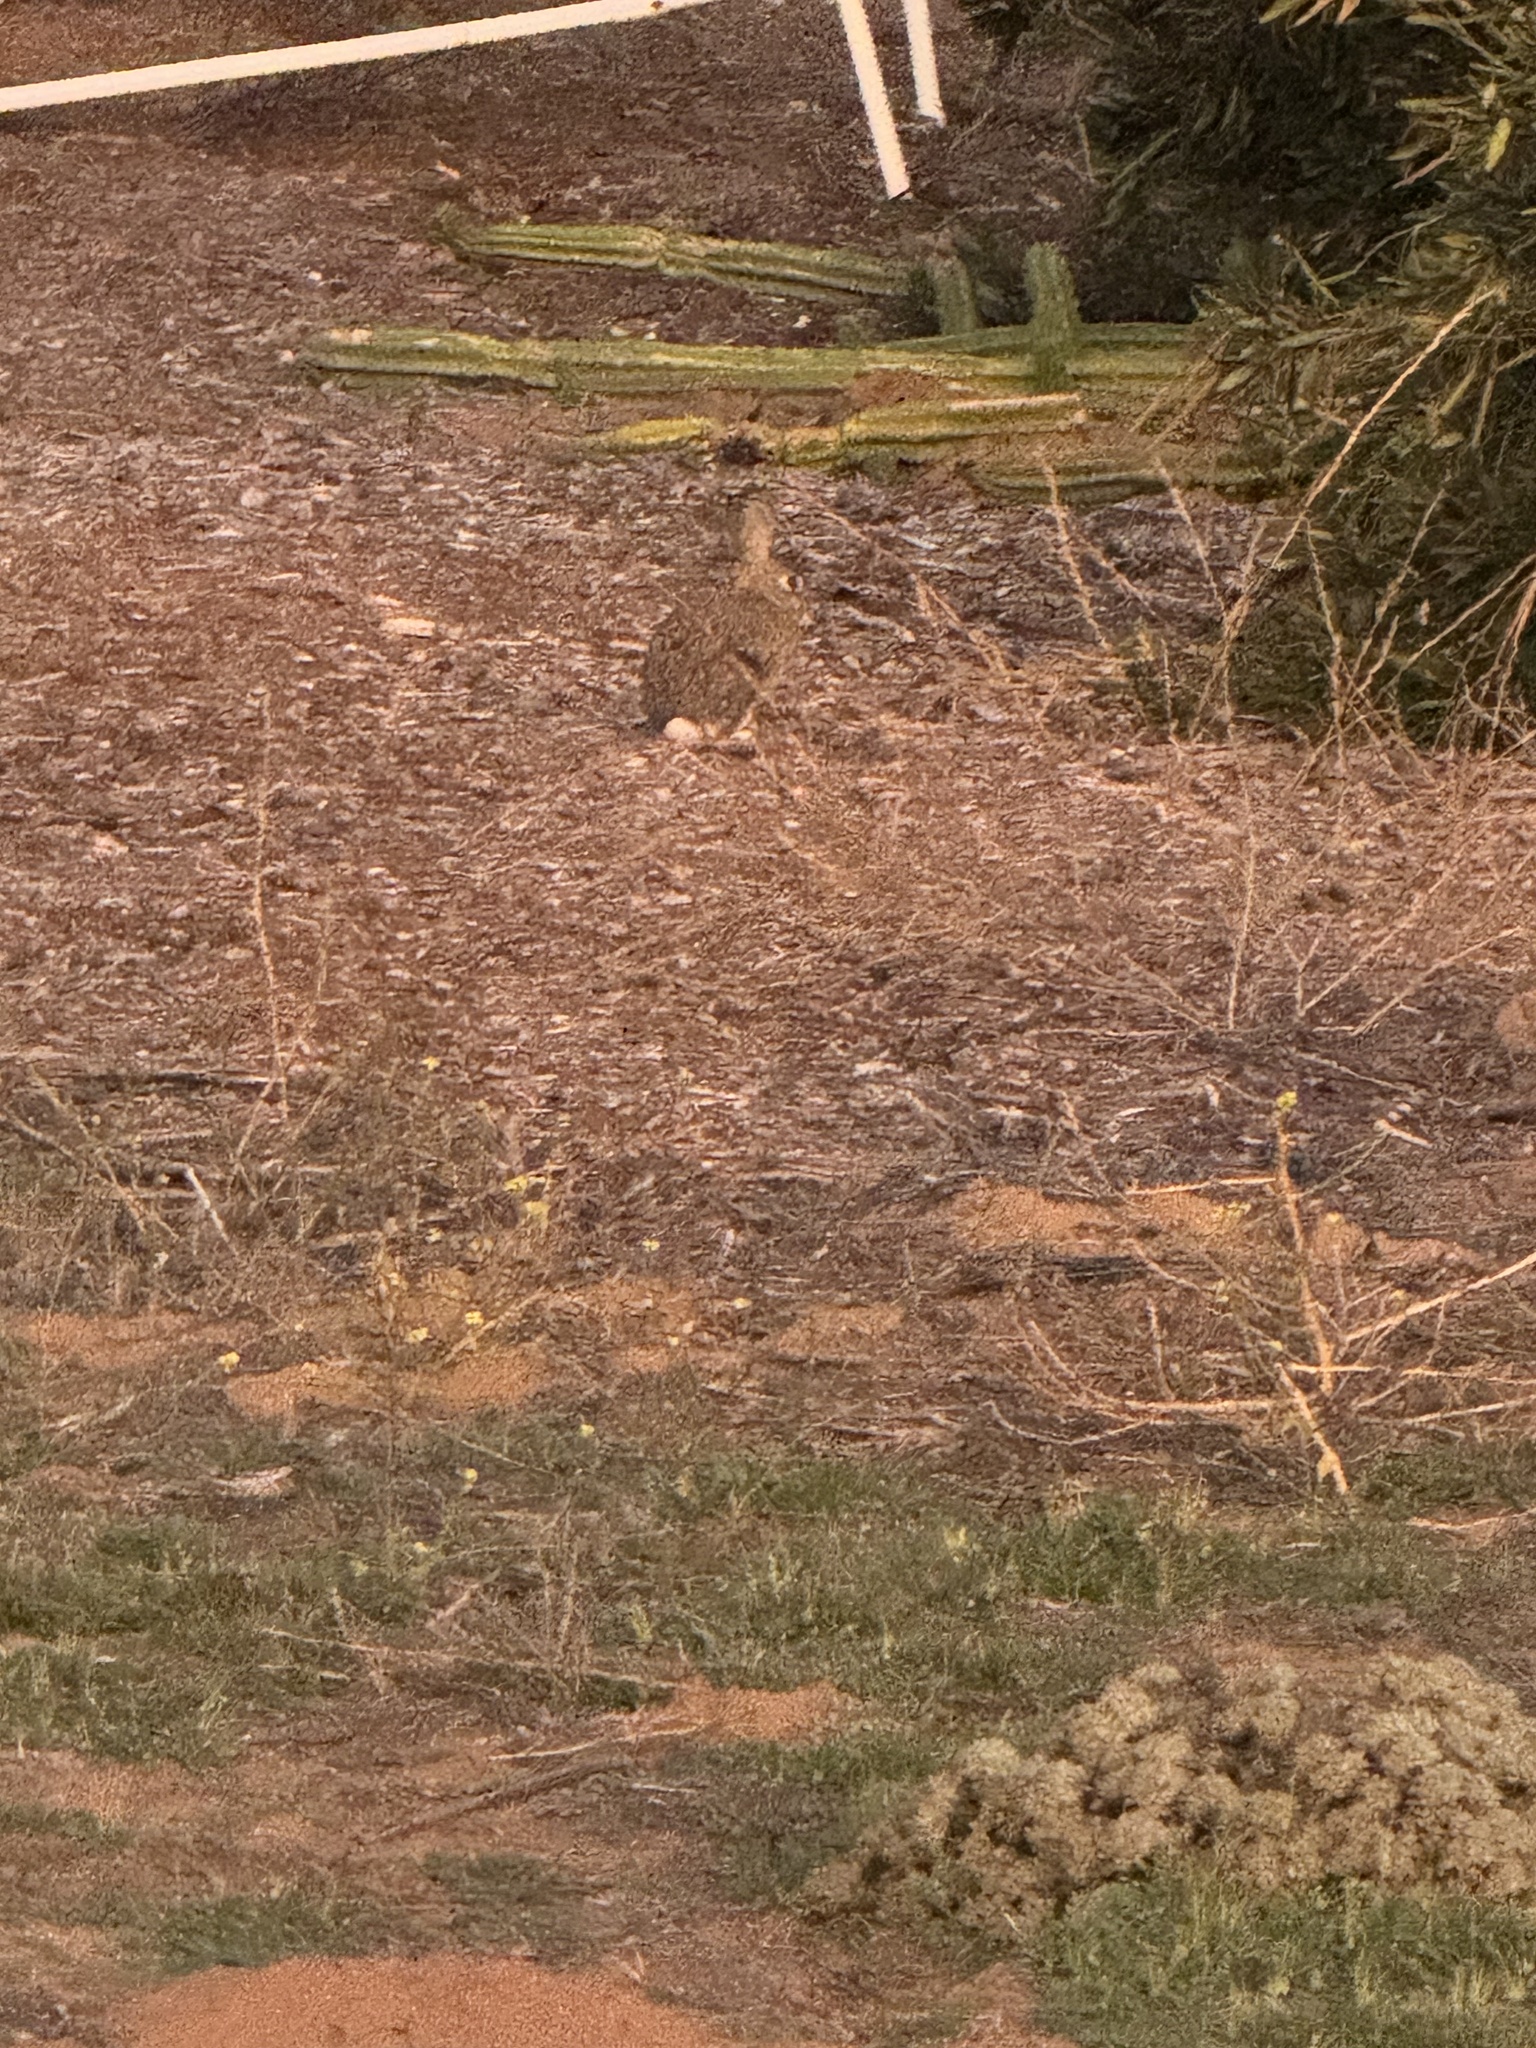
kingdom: Animalia
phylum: Chordata
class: Mammalia
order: Lagomorpha
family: Leporidae
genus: Sylvilagus
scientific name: Sylvilagus audubonii
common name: Desert cottontail
